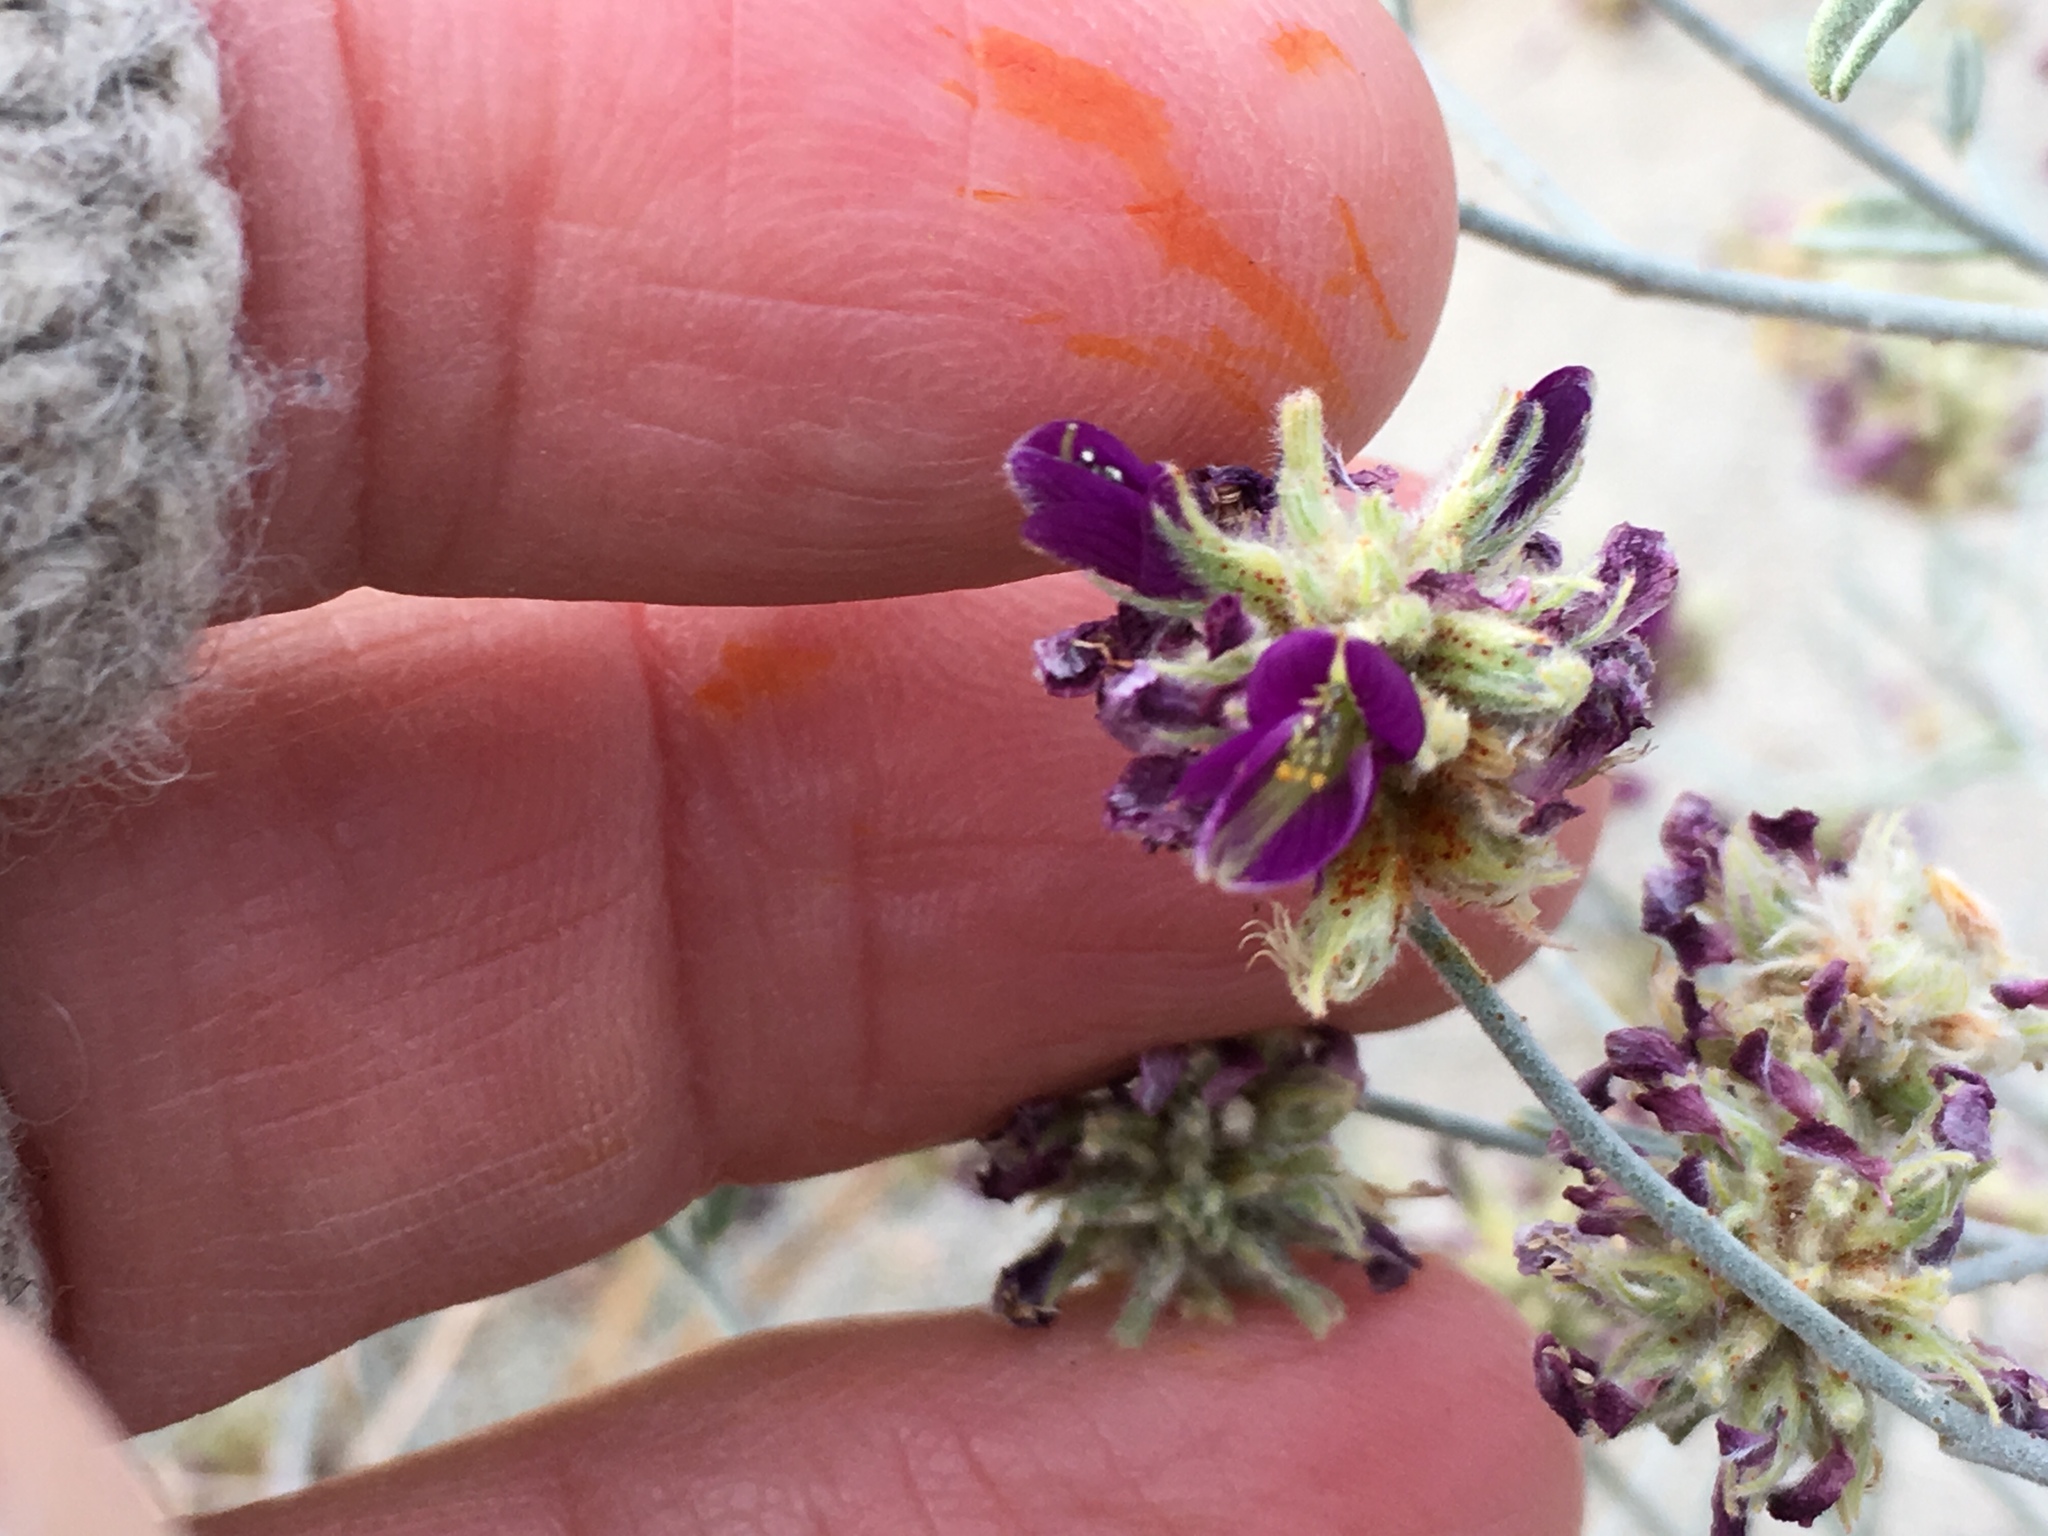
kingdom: Plantae
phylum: Tracheophyta
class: Magnoliopsida
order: Fabales
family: Fabaceae
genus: Psorothamnus
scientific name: Psorothamnus emoryi
